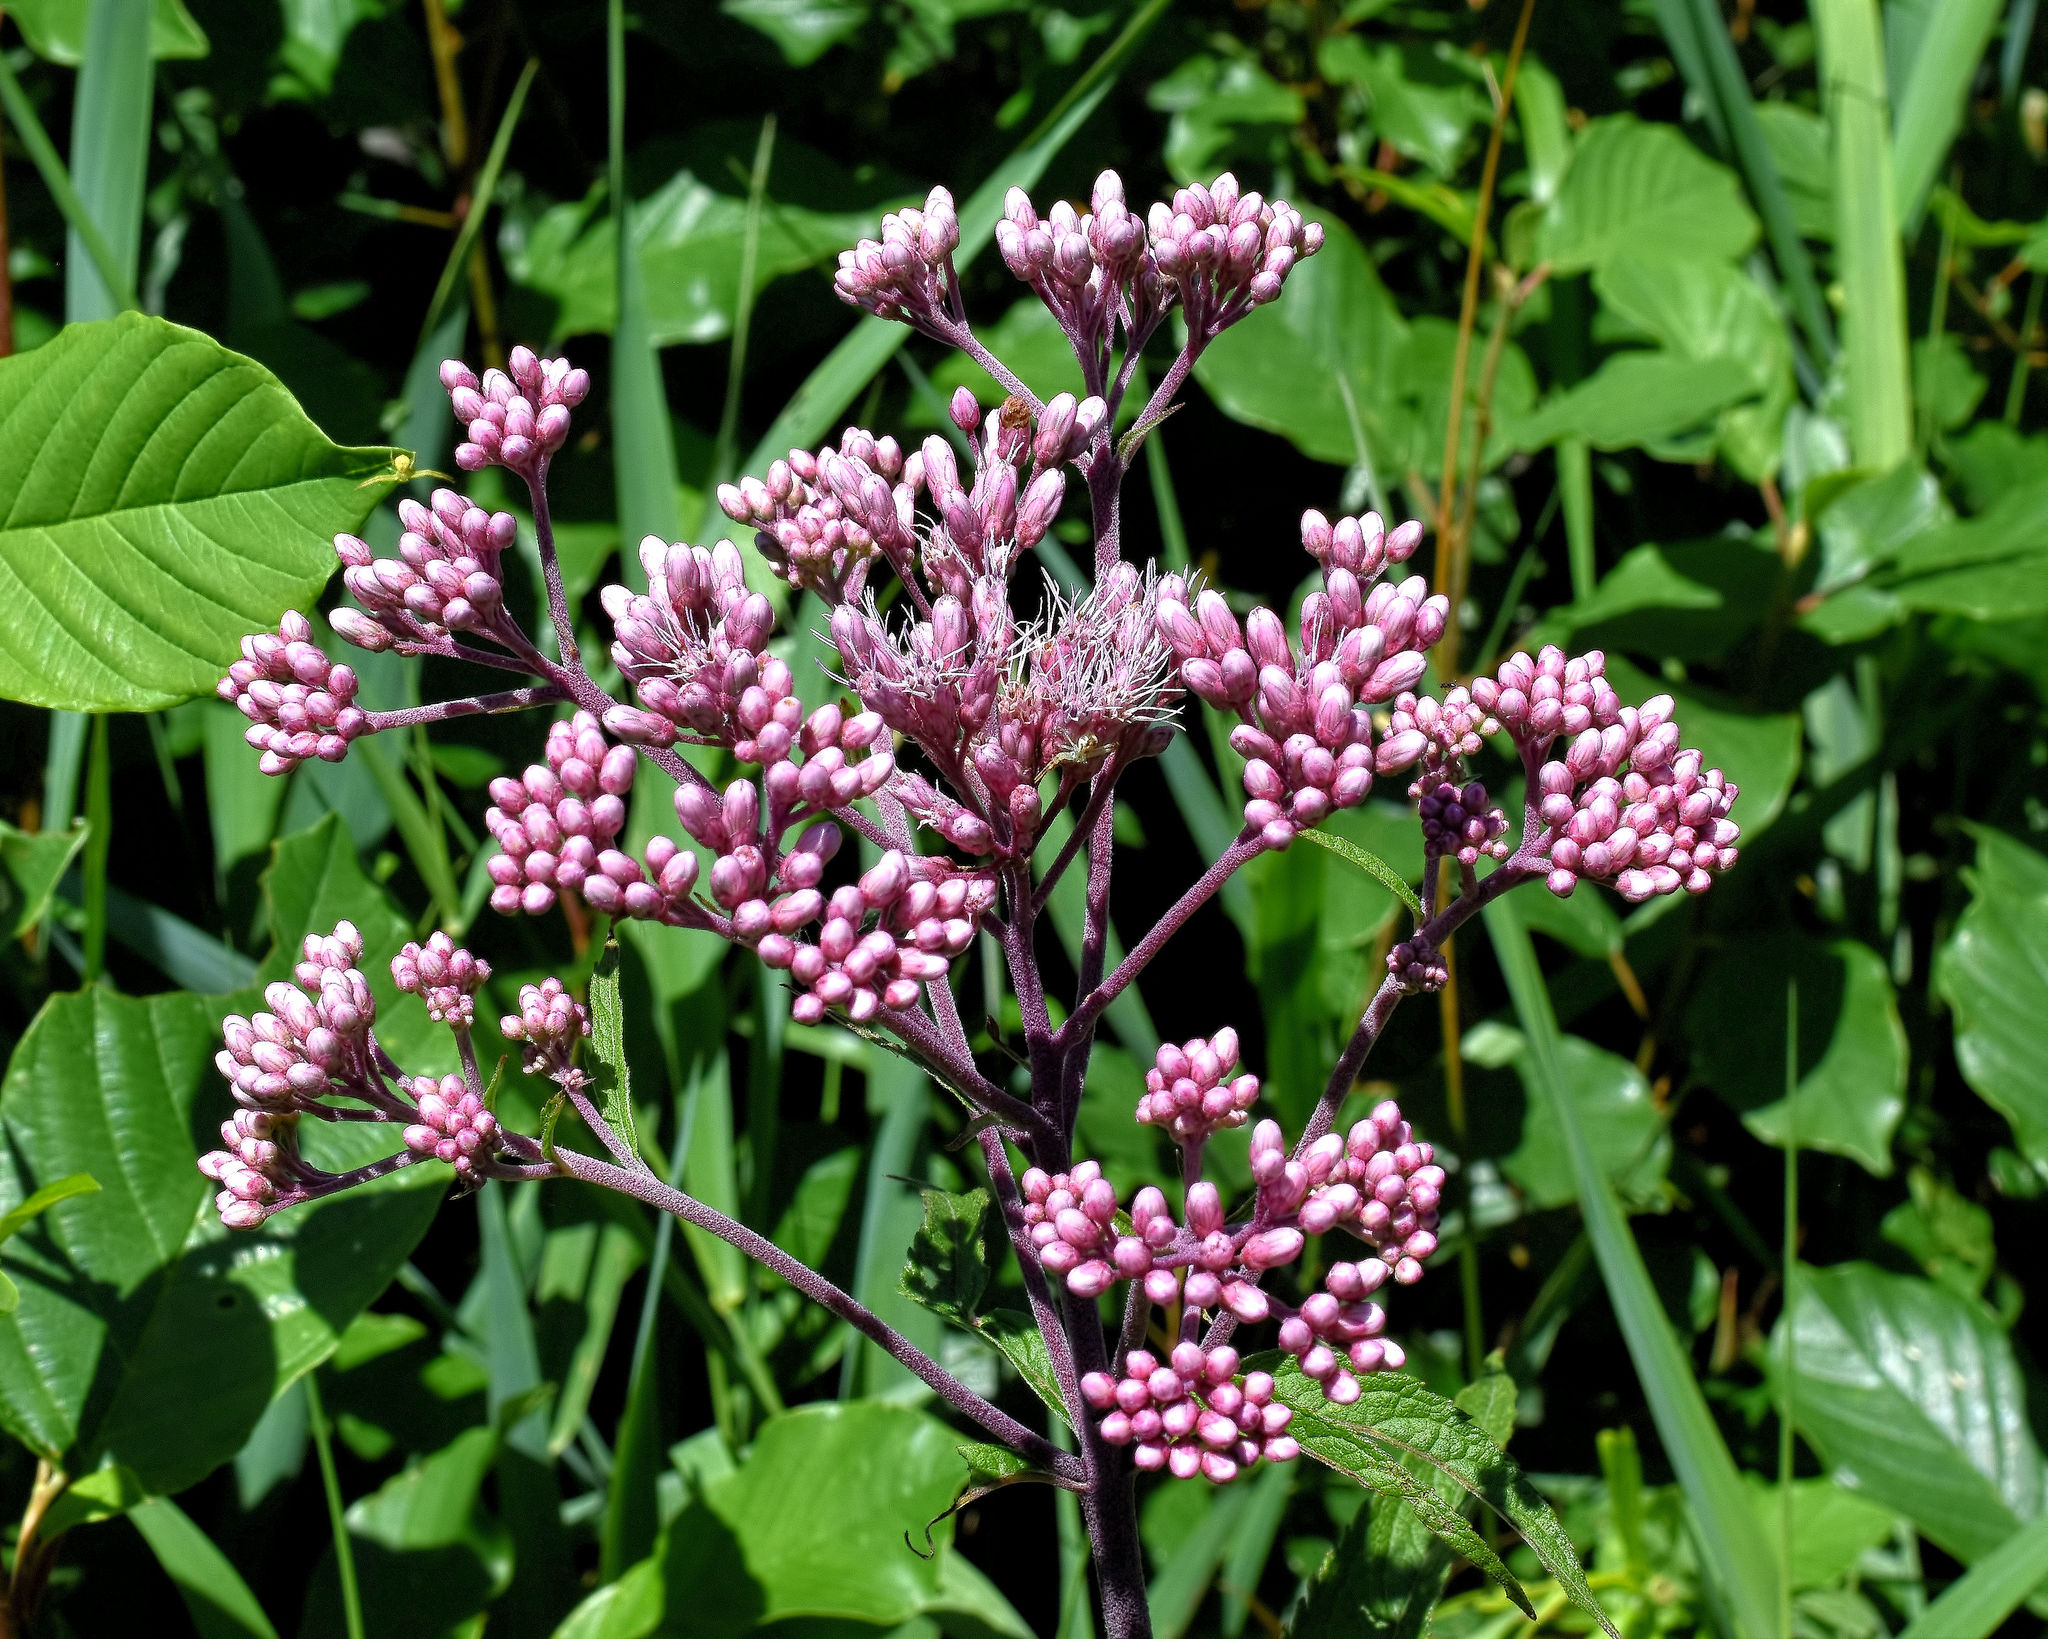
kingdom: Plantae
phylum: Tracheophyta
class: Magnoliopsida
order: Asterales
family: Asteraceae
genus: Eutrochium
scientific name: Eutrochium maculatum
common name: Spotted joe pye weed
